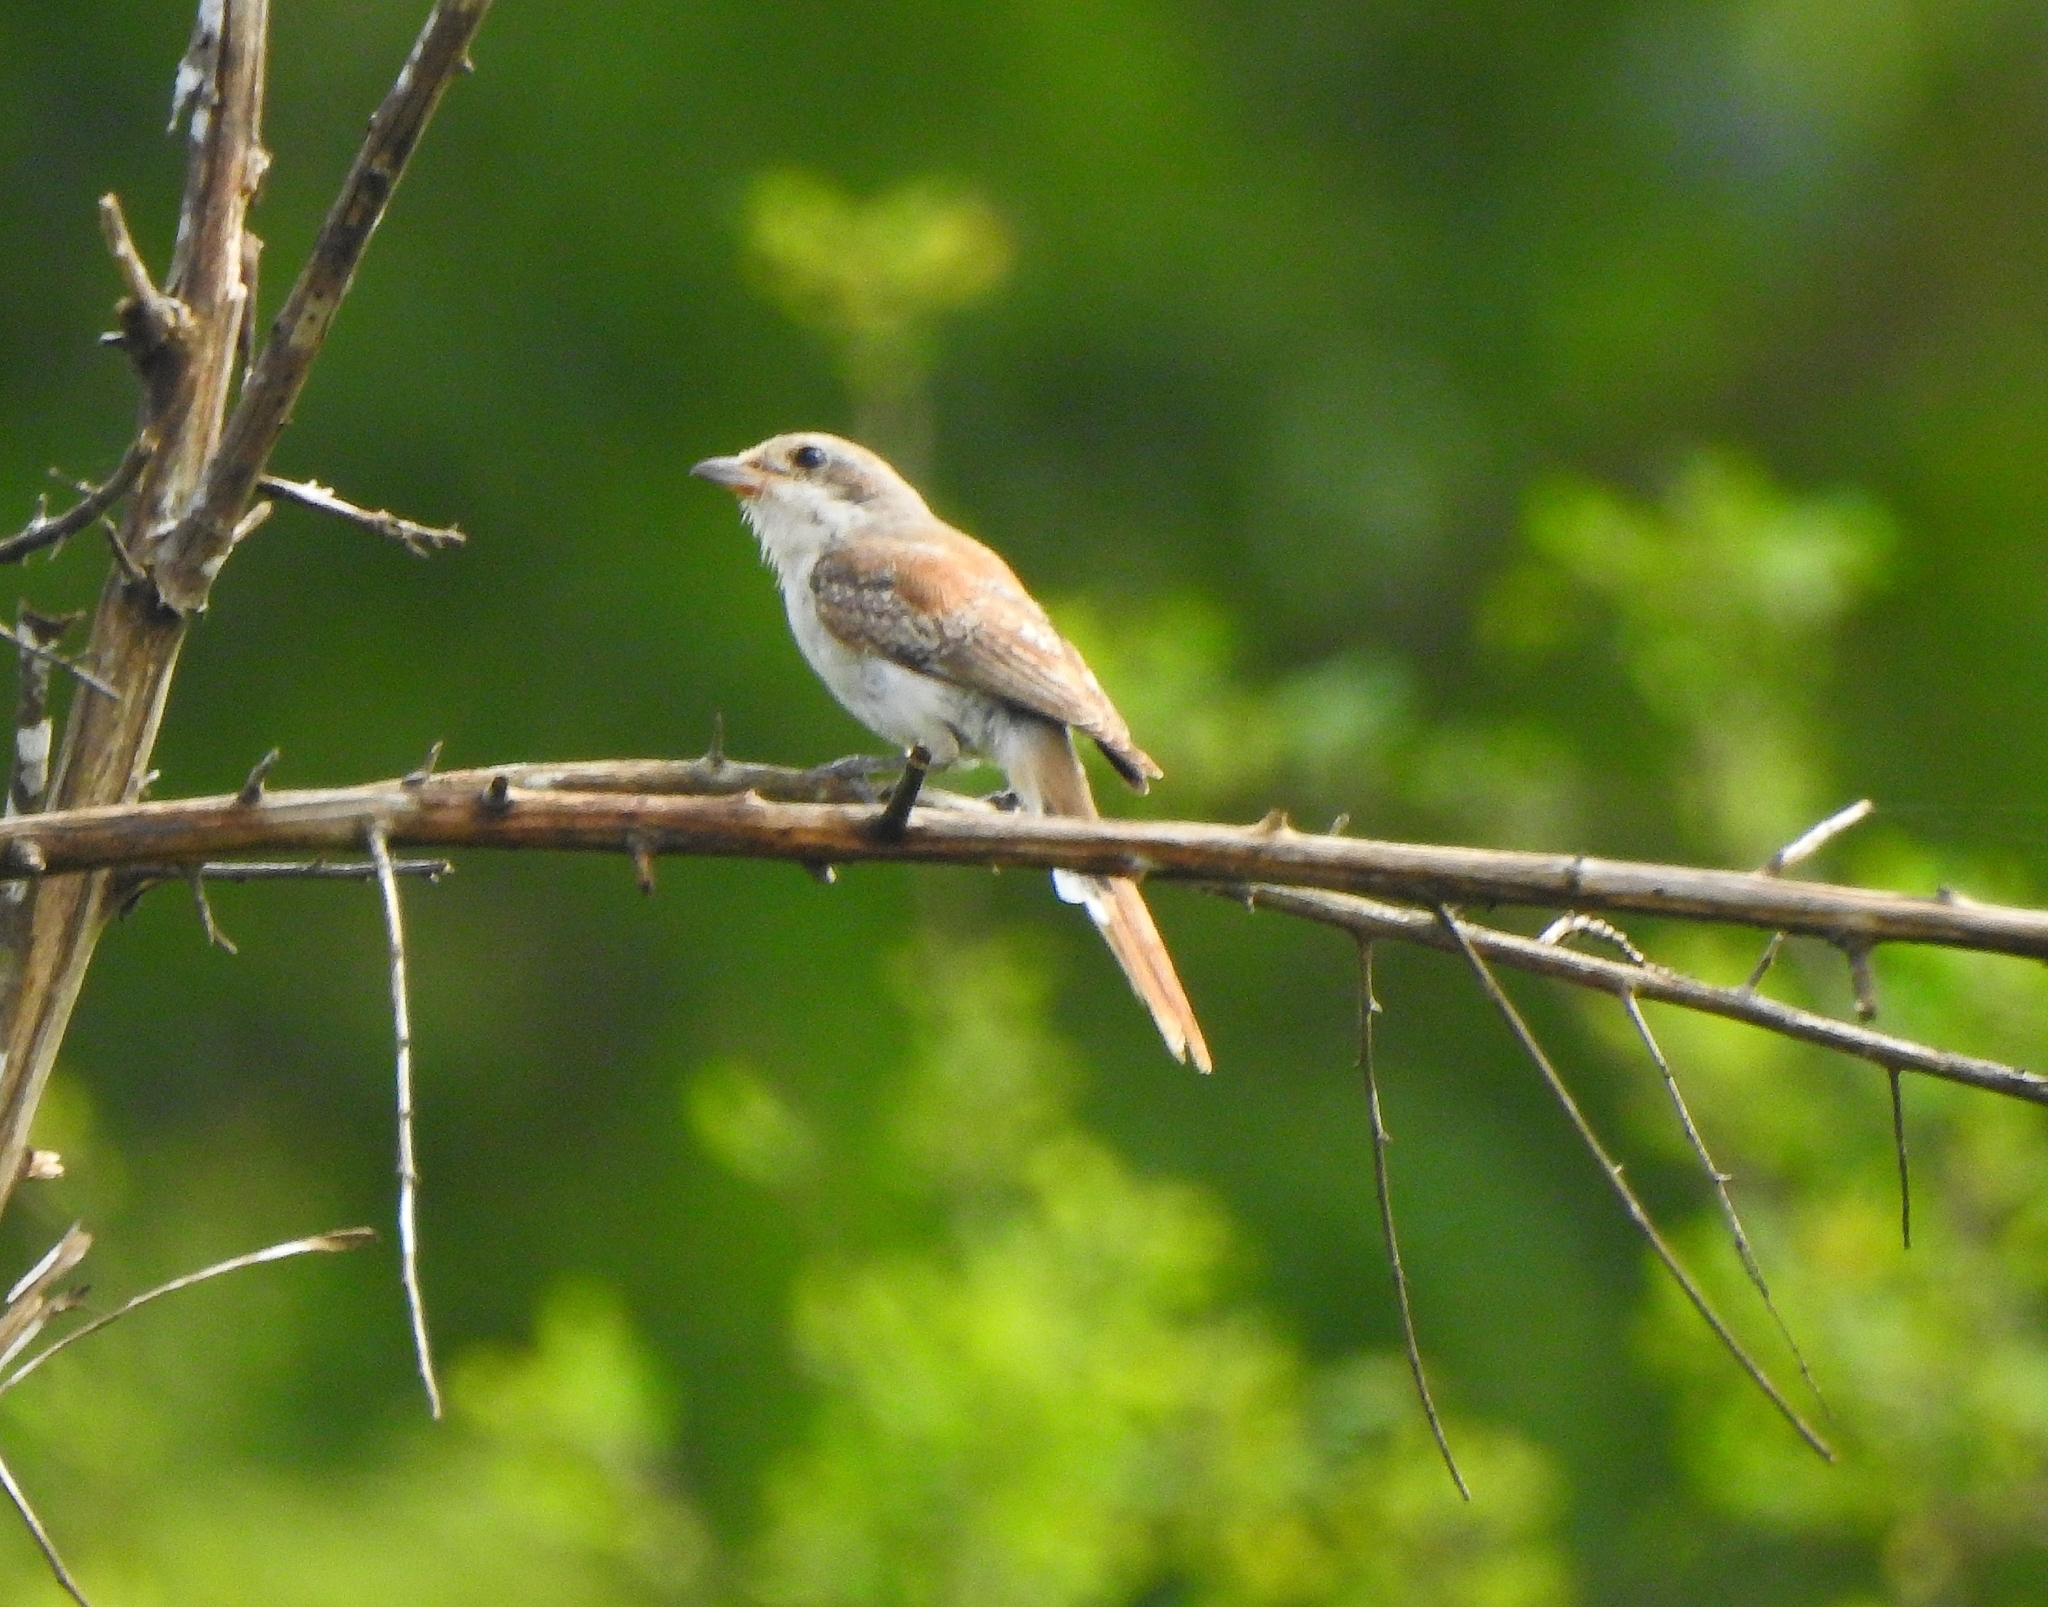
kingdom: Animalia
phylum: Chordata
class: Aves
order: Passeriformes
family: Laniidae
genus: Lanius
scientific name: Lanius vittatus
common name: Bay-backed shrike
